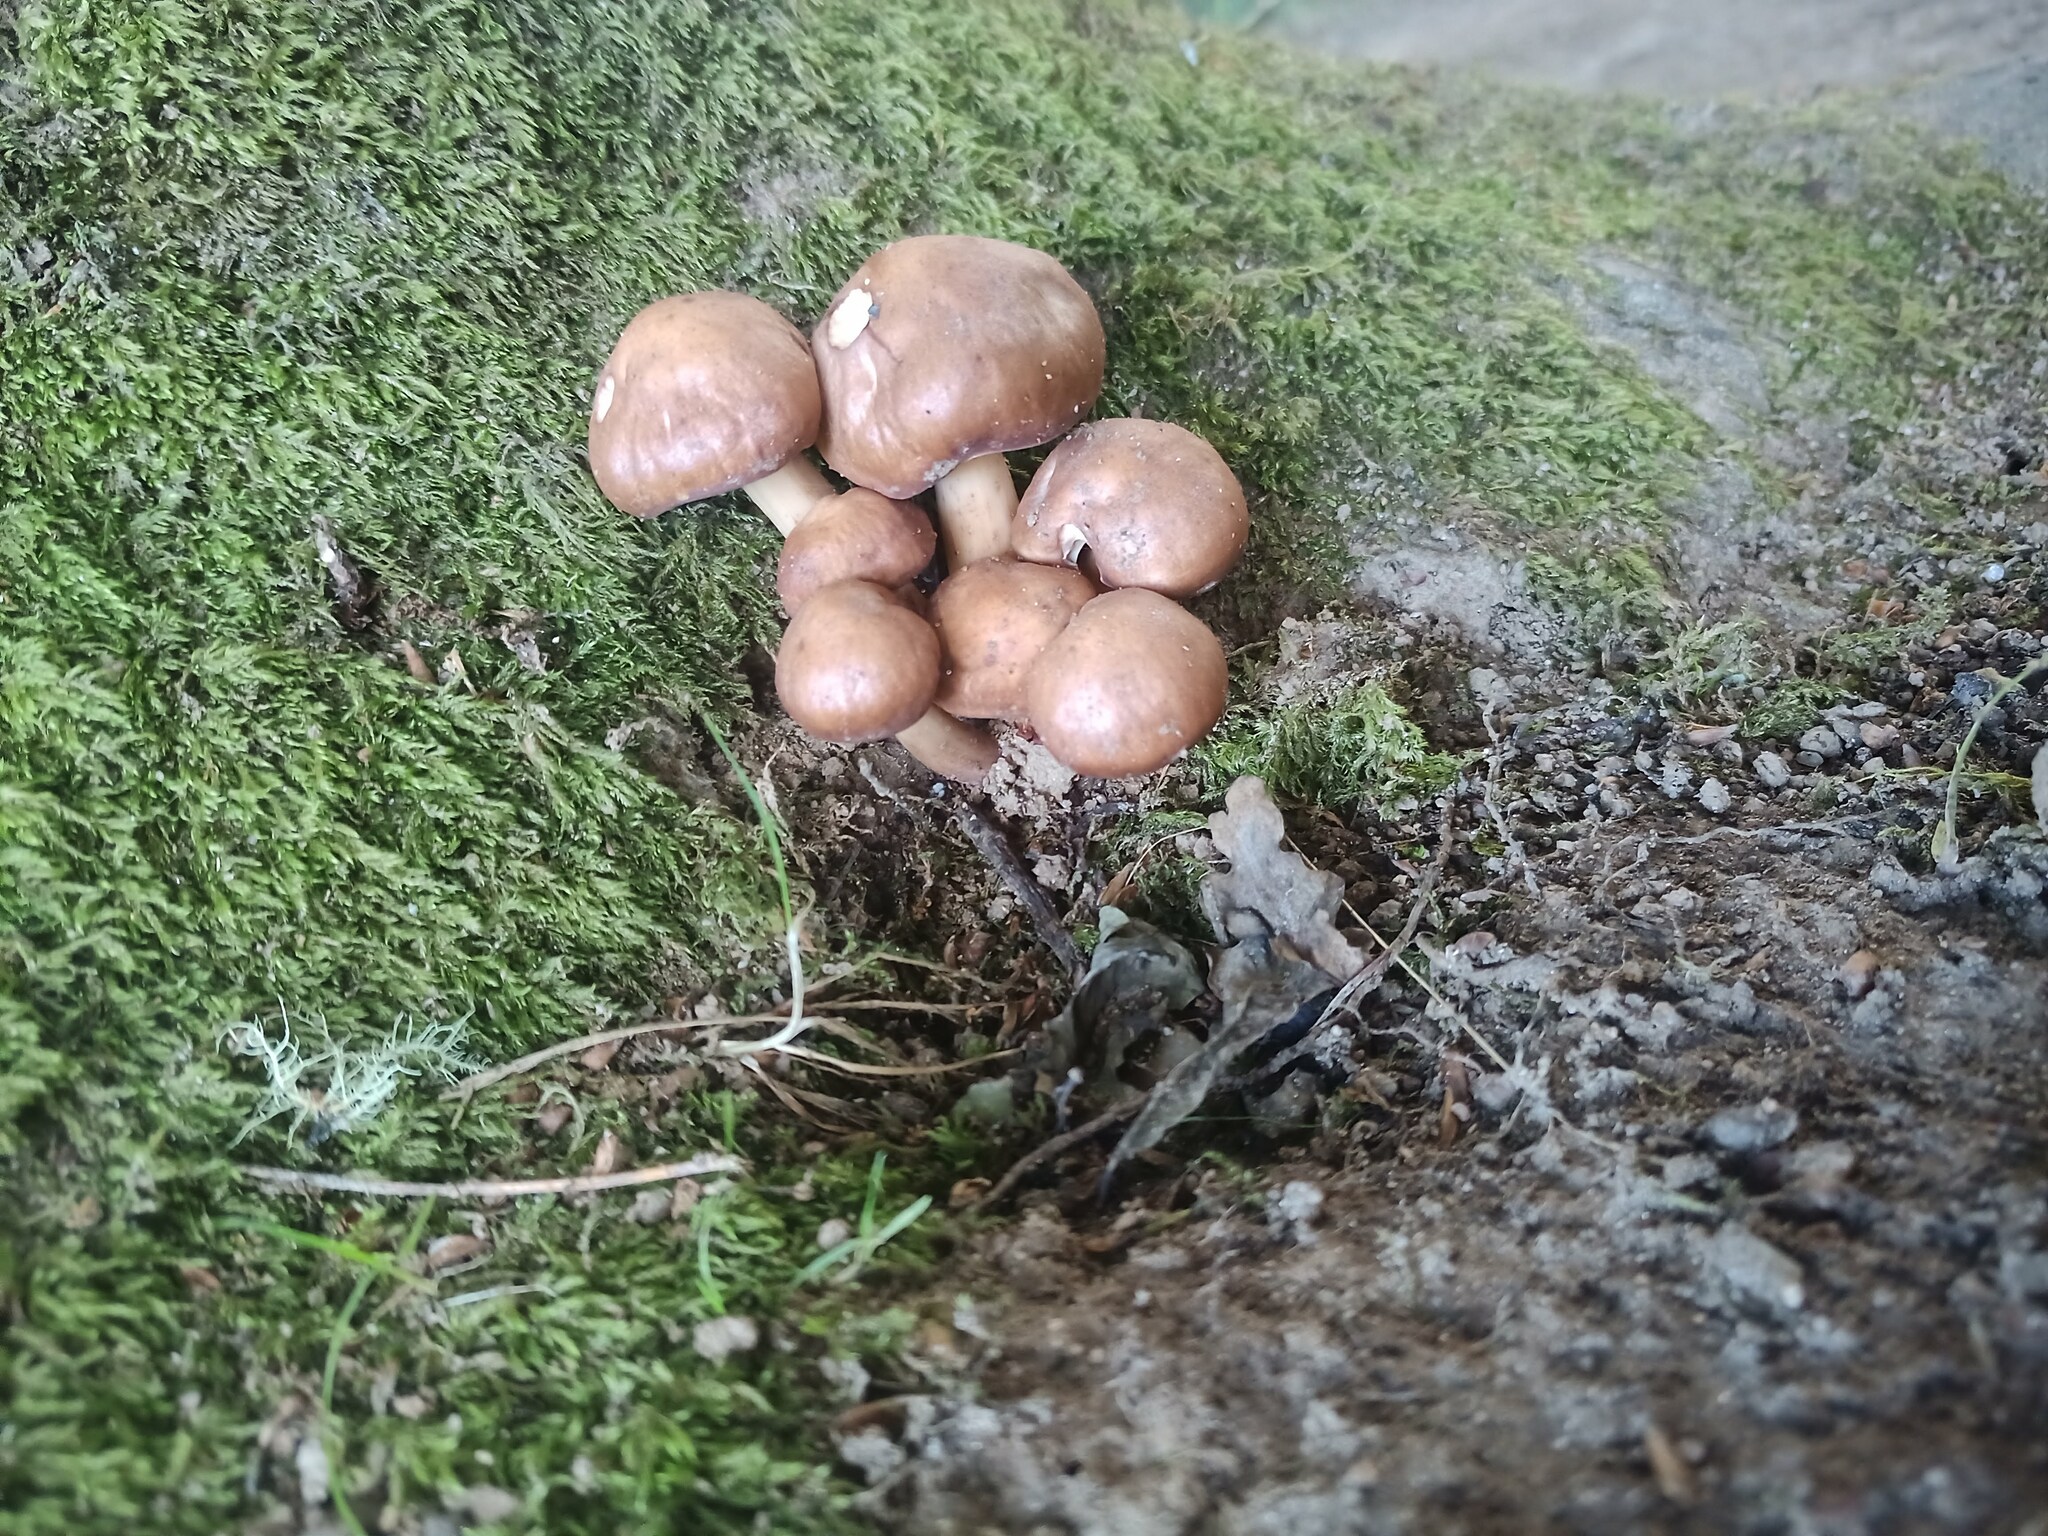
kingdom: Fungi
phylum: Basidiomycota
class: Agaricomycetes
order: Agaricales
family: Omphalotaceae
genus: Gymnopus
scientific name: Gymnopus fusipes
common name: Spindle shank
